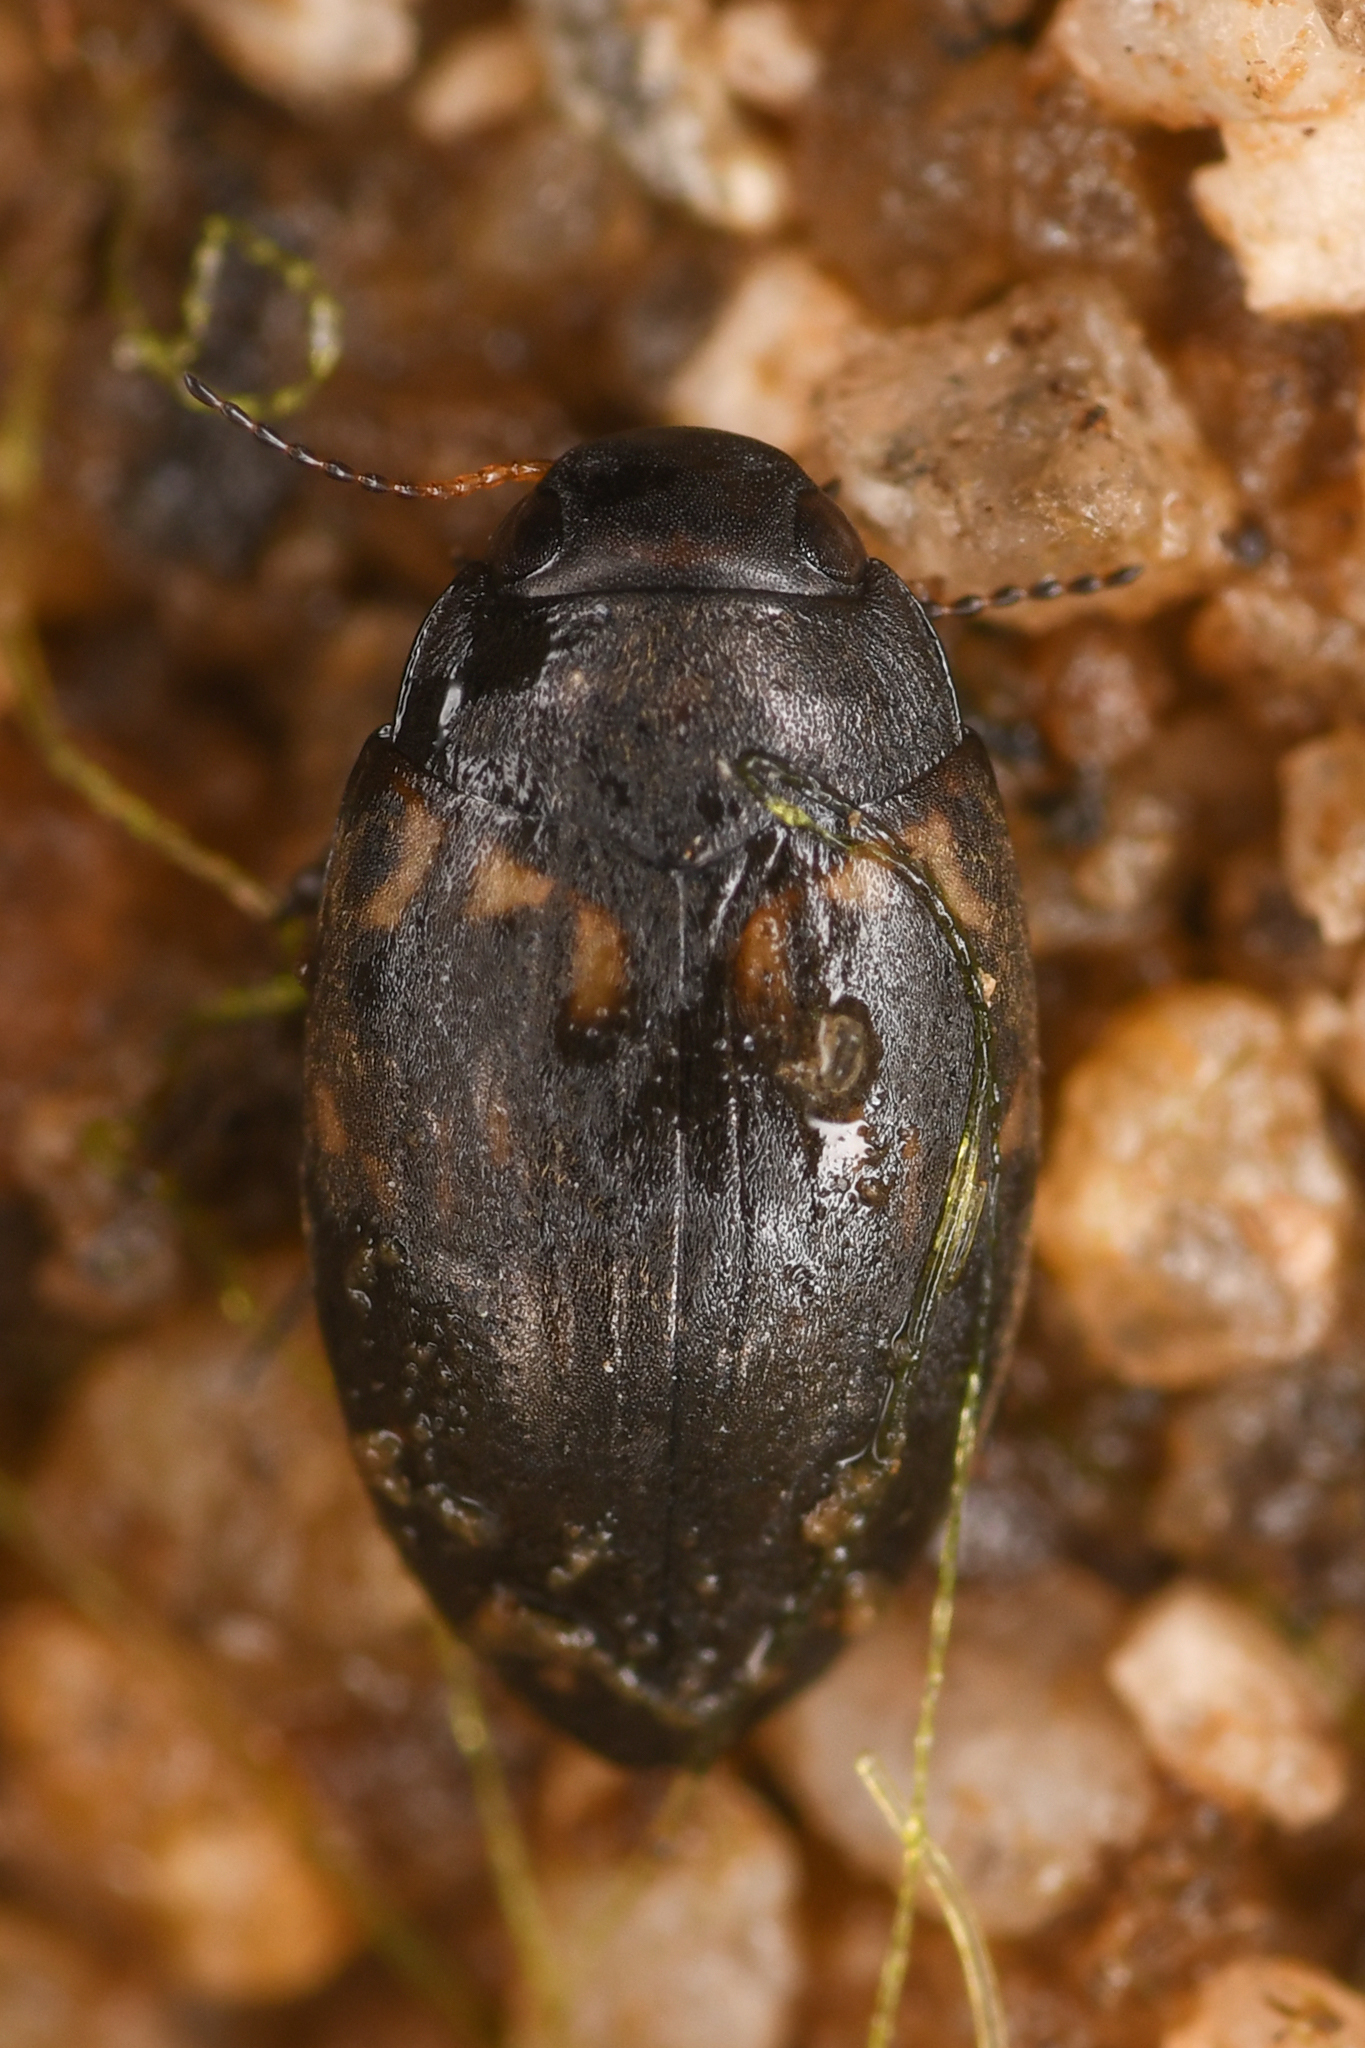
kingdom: Animalia
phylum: Arthropoda
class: Insecta
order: Coleoptera
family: Dytiscidae
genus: Leconectes
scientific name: Leconectes striatellus
